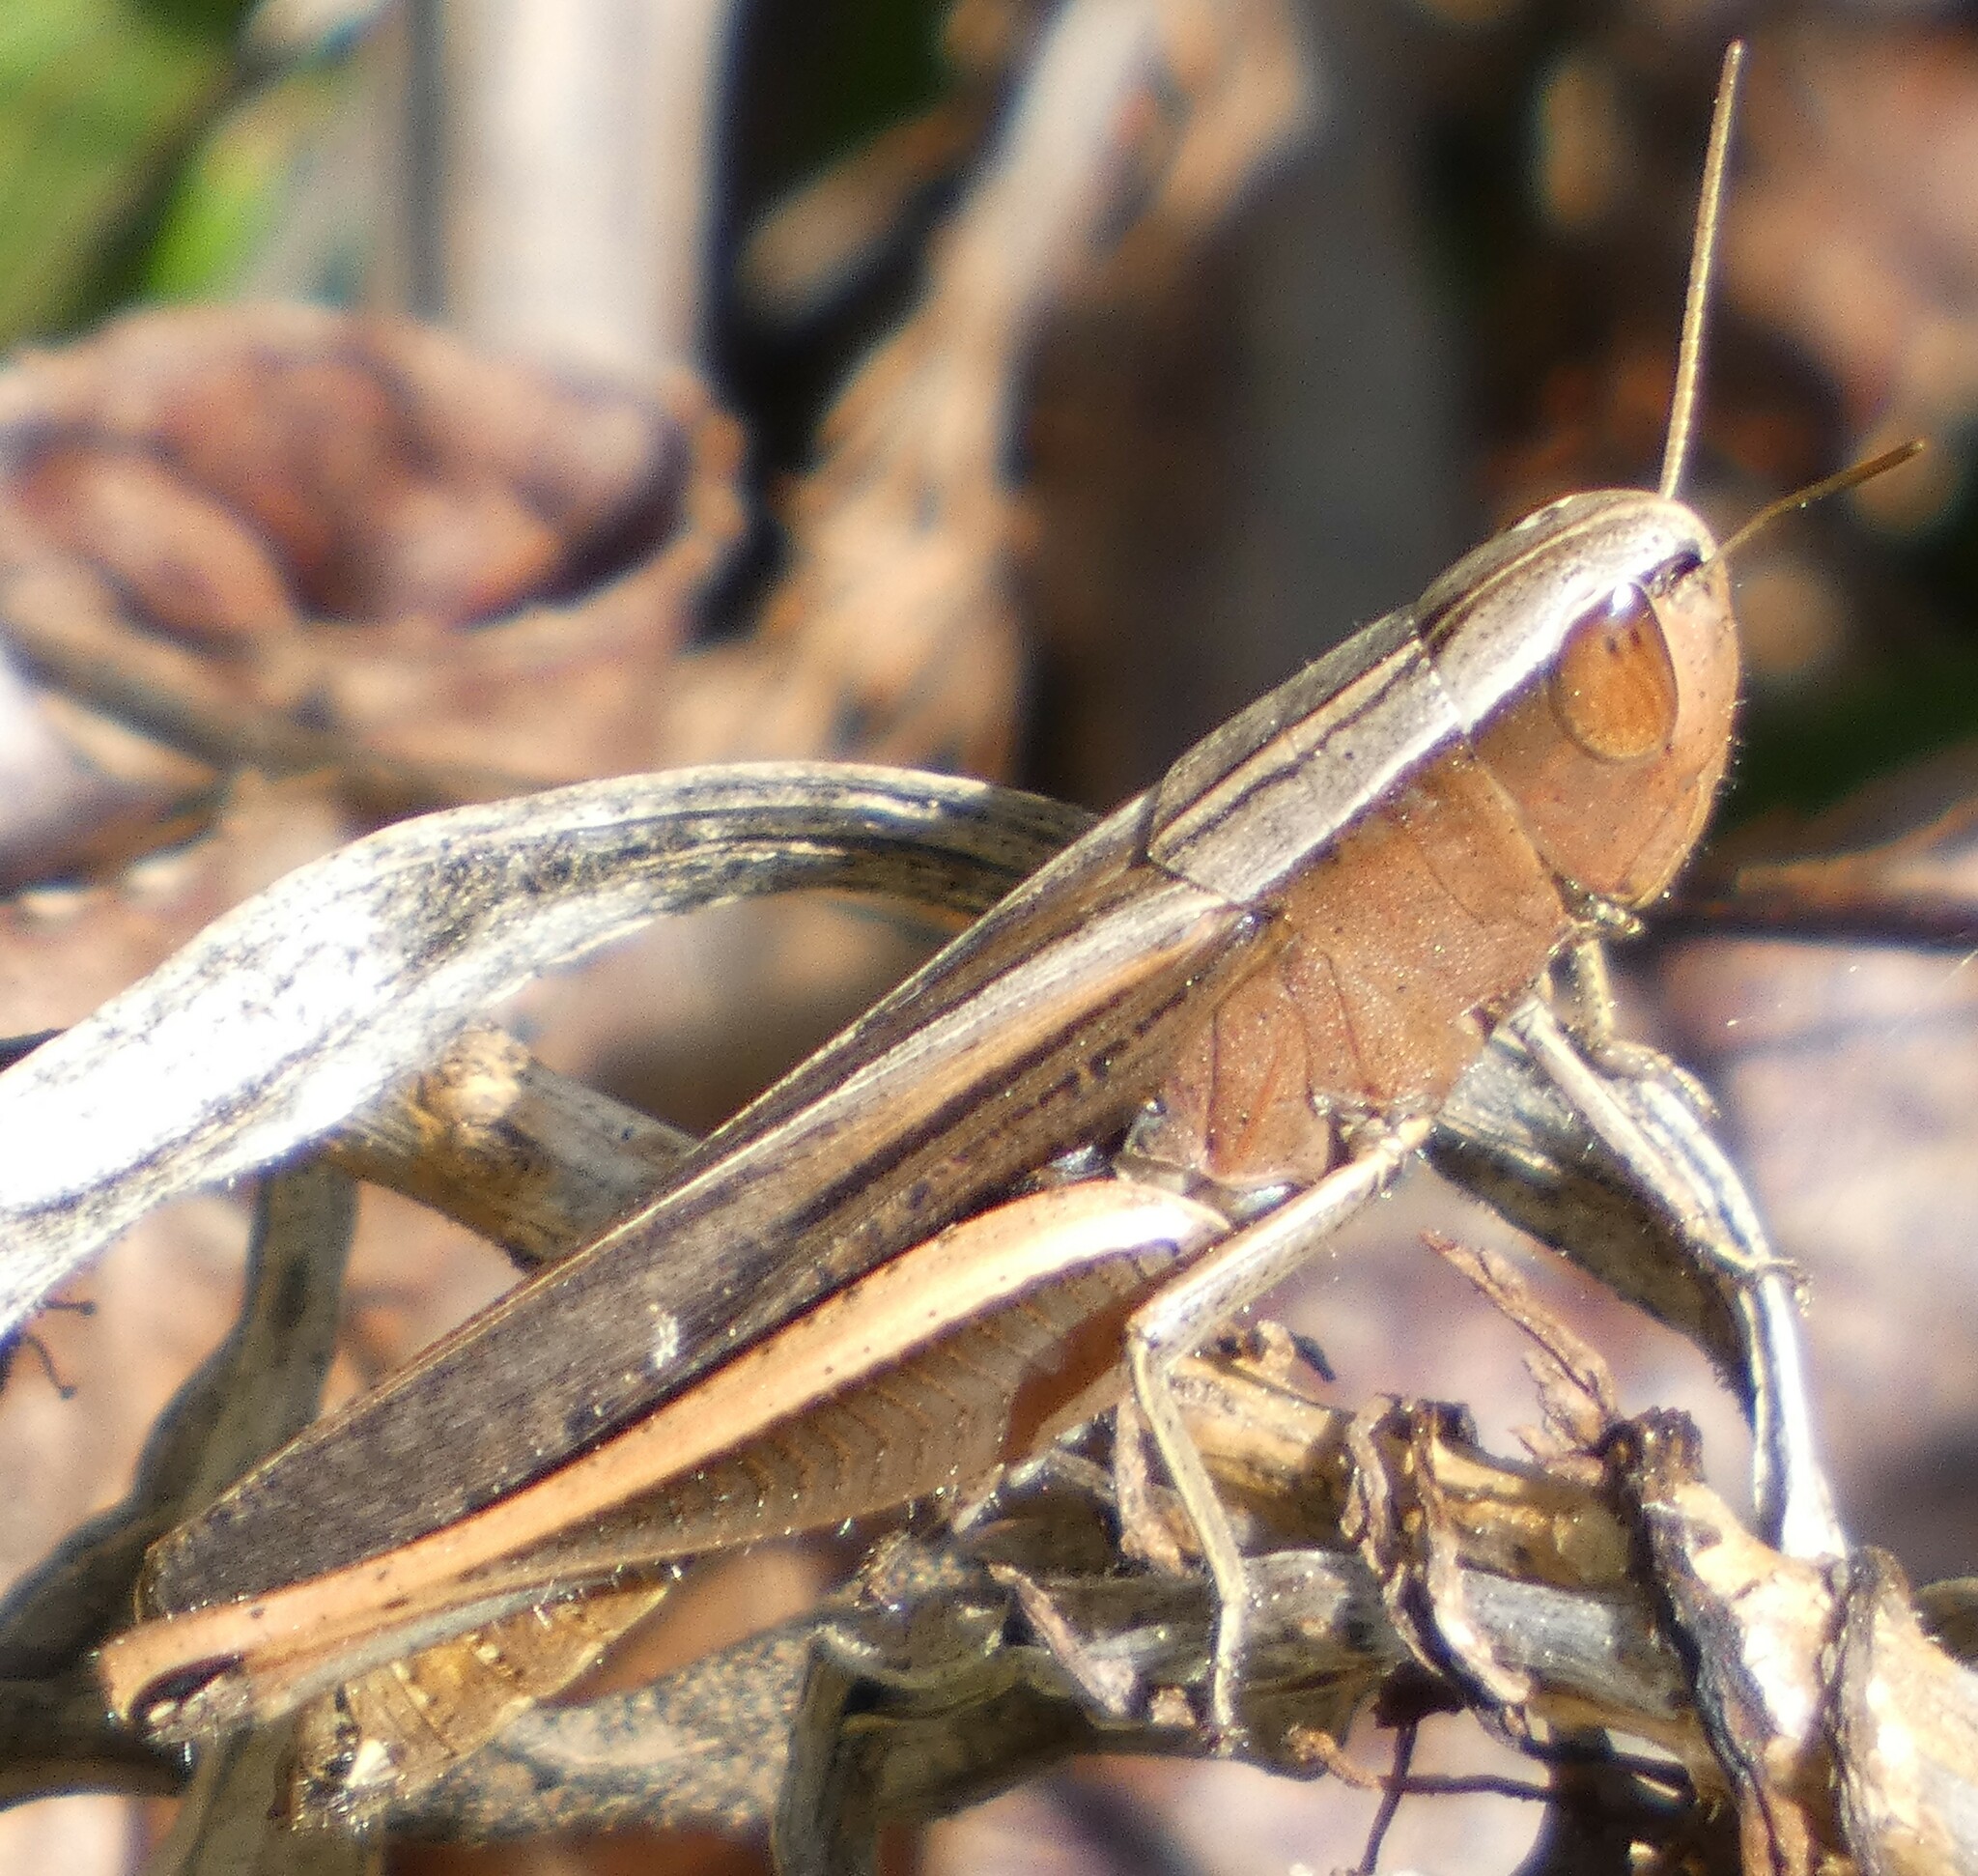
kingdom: Animalia
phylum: Arthropoda
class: Insecta
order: Orthoptera
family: Acrididae
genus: Amblytropidia
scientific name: Amblytropidia mysteca
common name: Brown winter grasshopper
